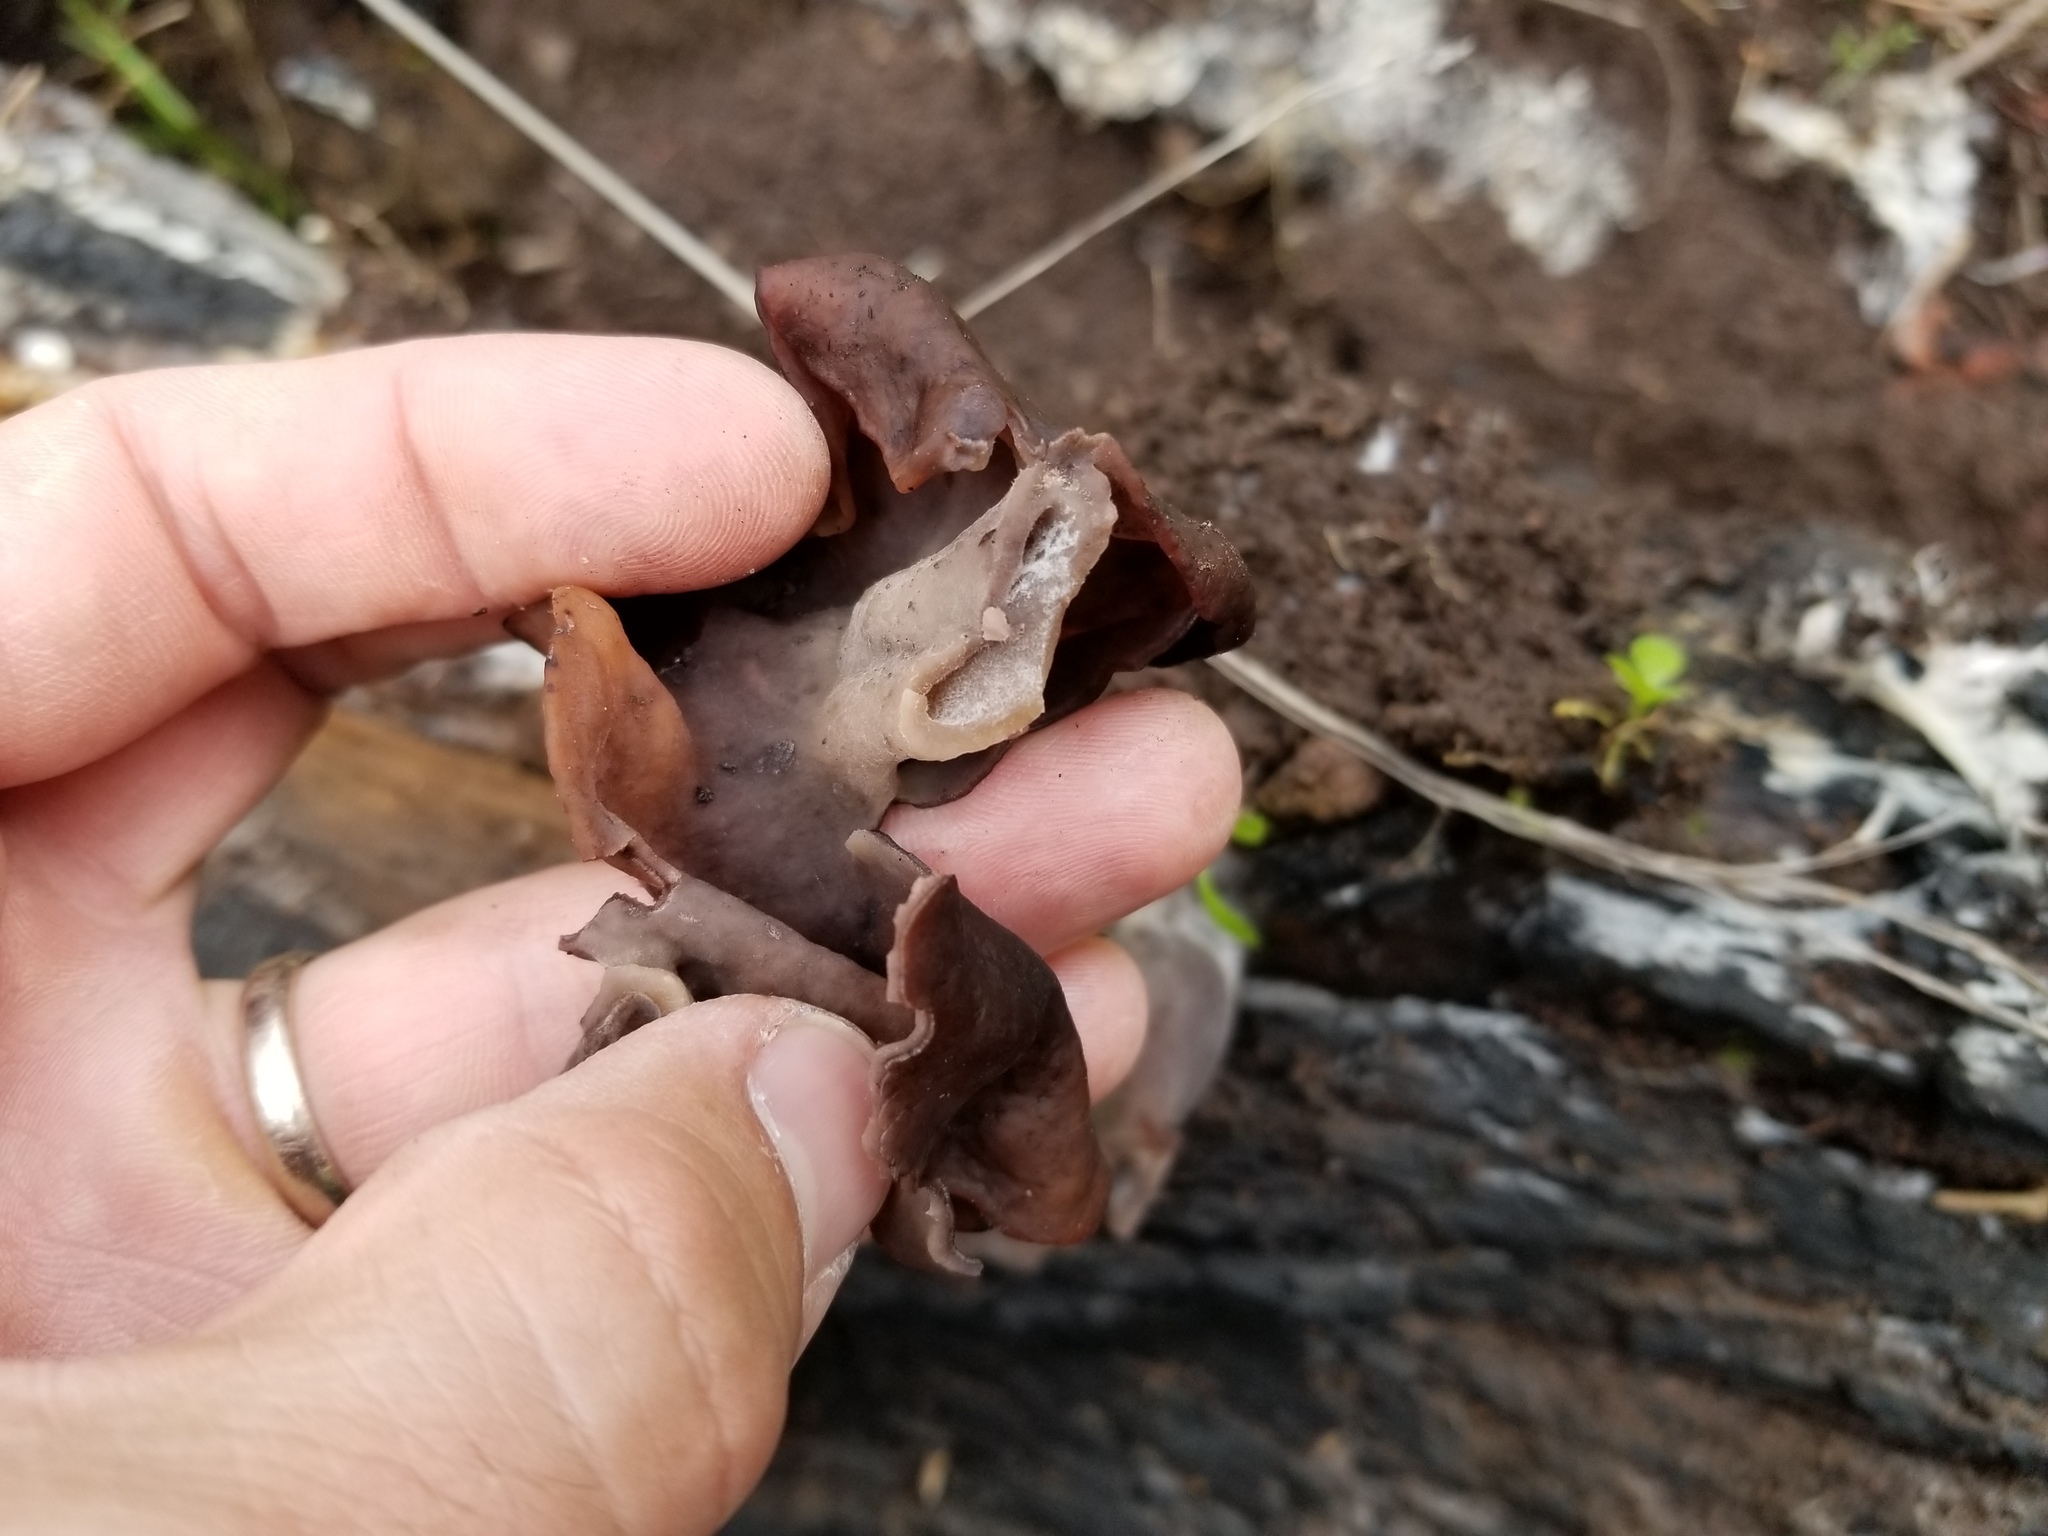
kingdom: Fungi
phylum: Ascomycota
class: Pezizomycetes
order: Pezizales
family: Discinaceae
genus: Gyromitra
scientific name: Gyromitra infula
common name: Pouched false morel
